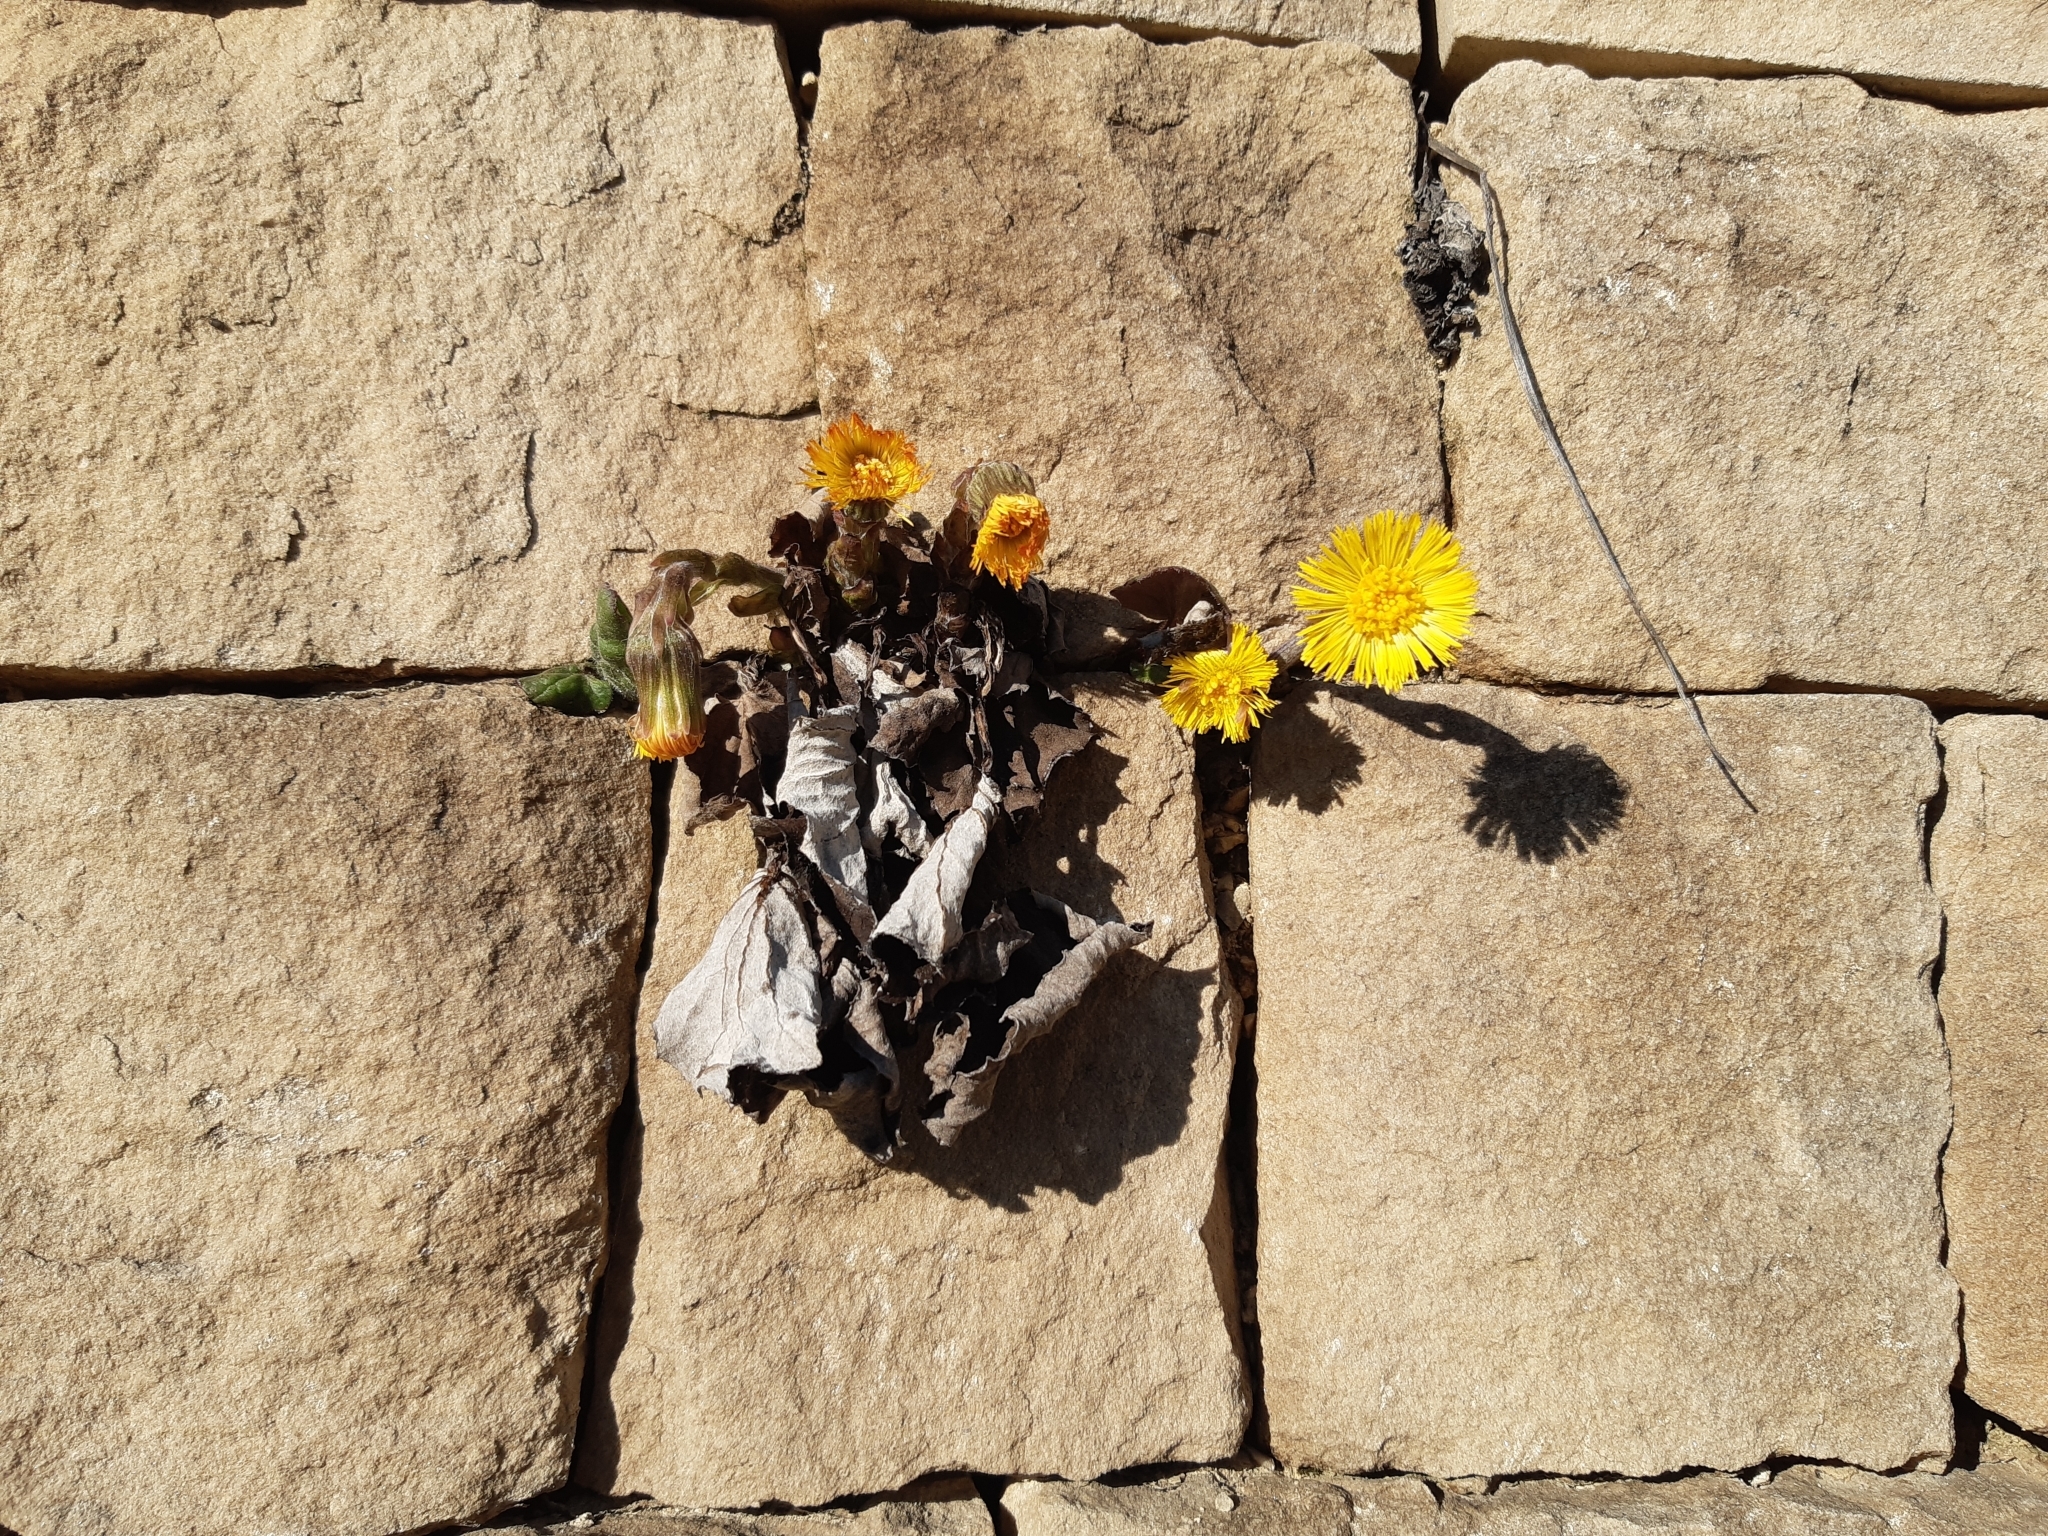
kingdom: Plantae
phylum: Tracheophyta
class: Magnoliopsida
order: Asterales
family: Asteraceae
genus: Tussilago
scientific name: Tussilago farfara
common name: Coltsfoot
